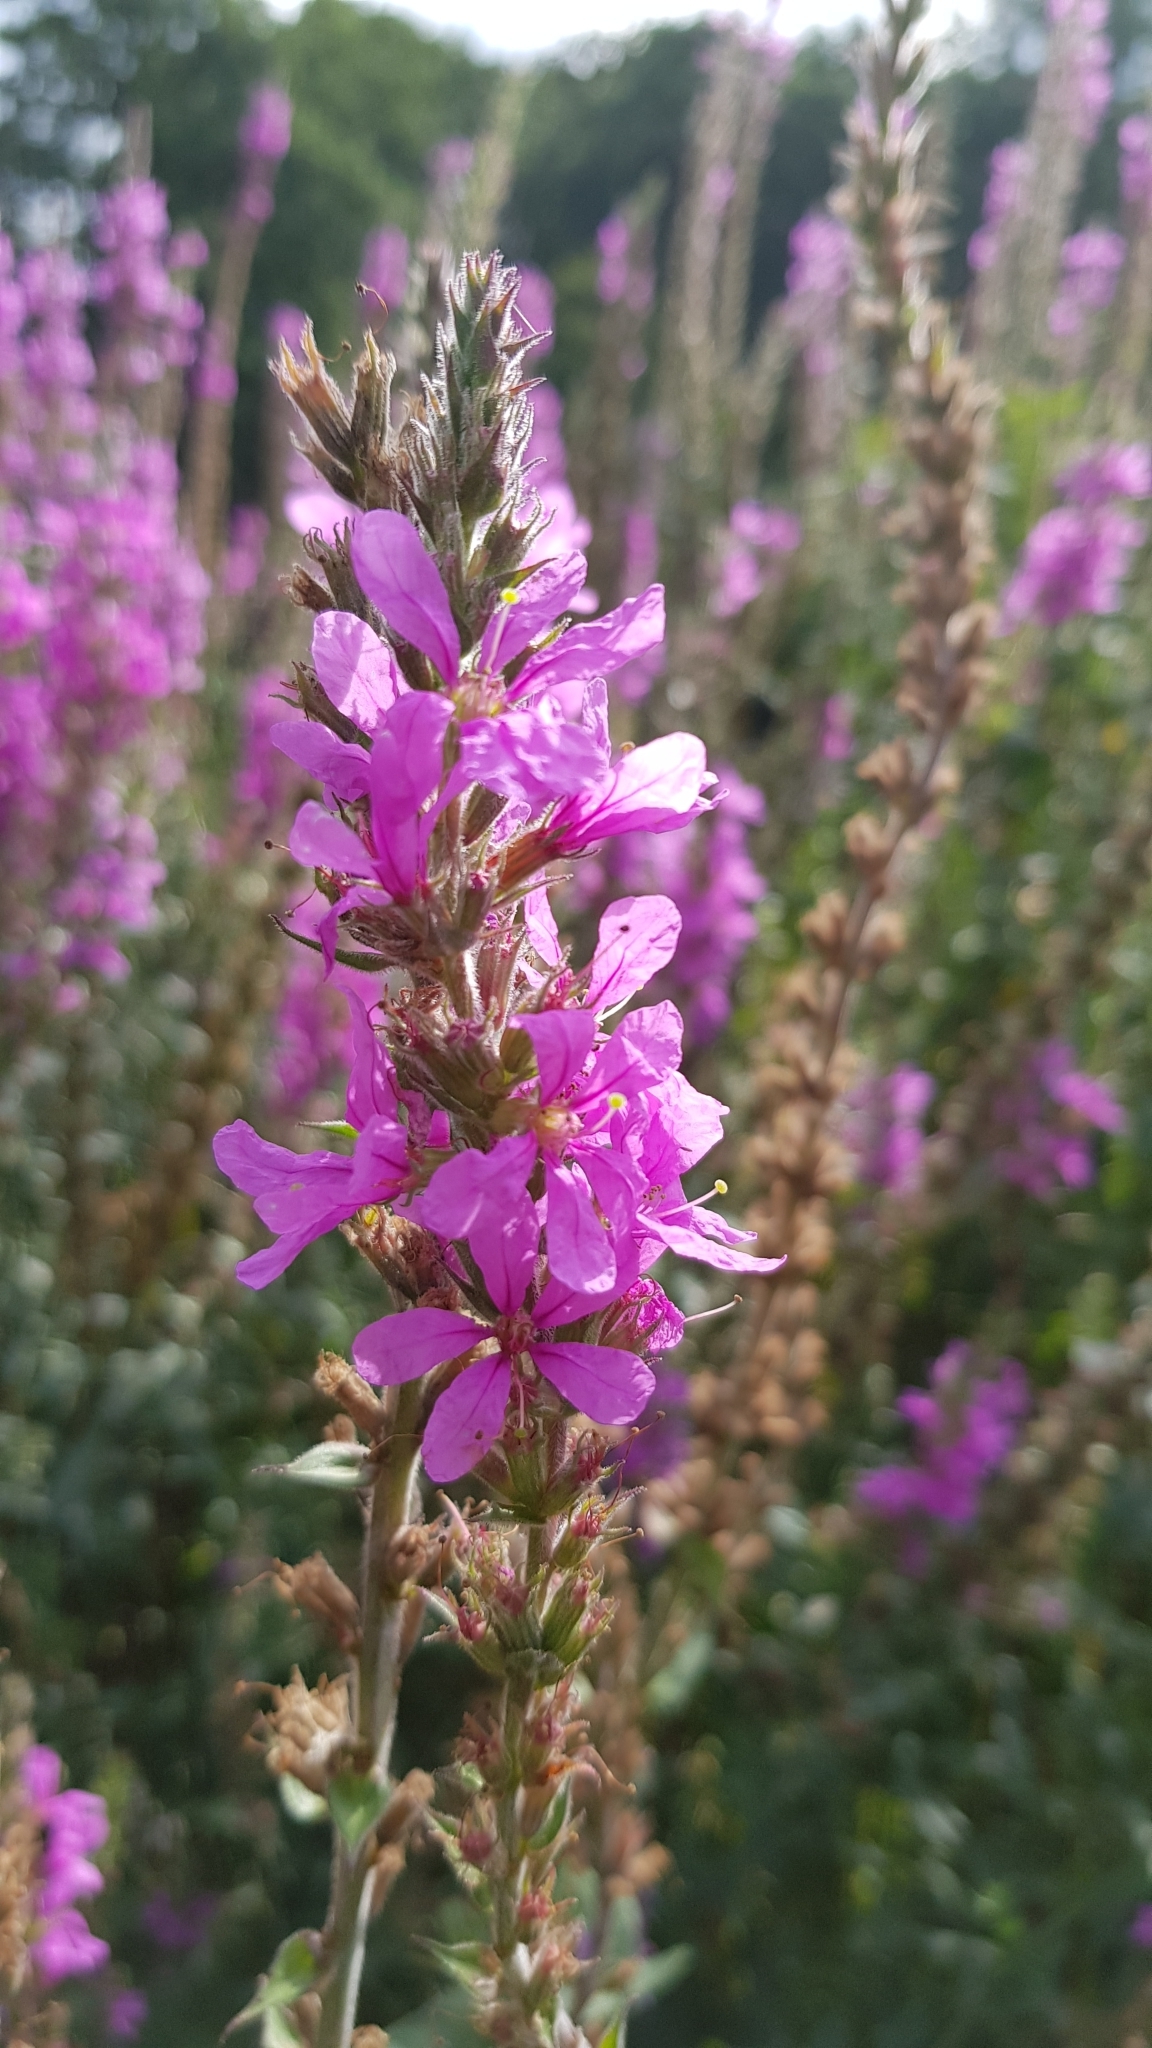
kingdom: Plantae
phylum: Tracheophyta
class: Magnoliopsida
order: Myrtales
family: Lythraceae
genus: Lythrum
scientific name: Lythrum salicaria
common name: Purple loosestrife
